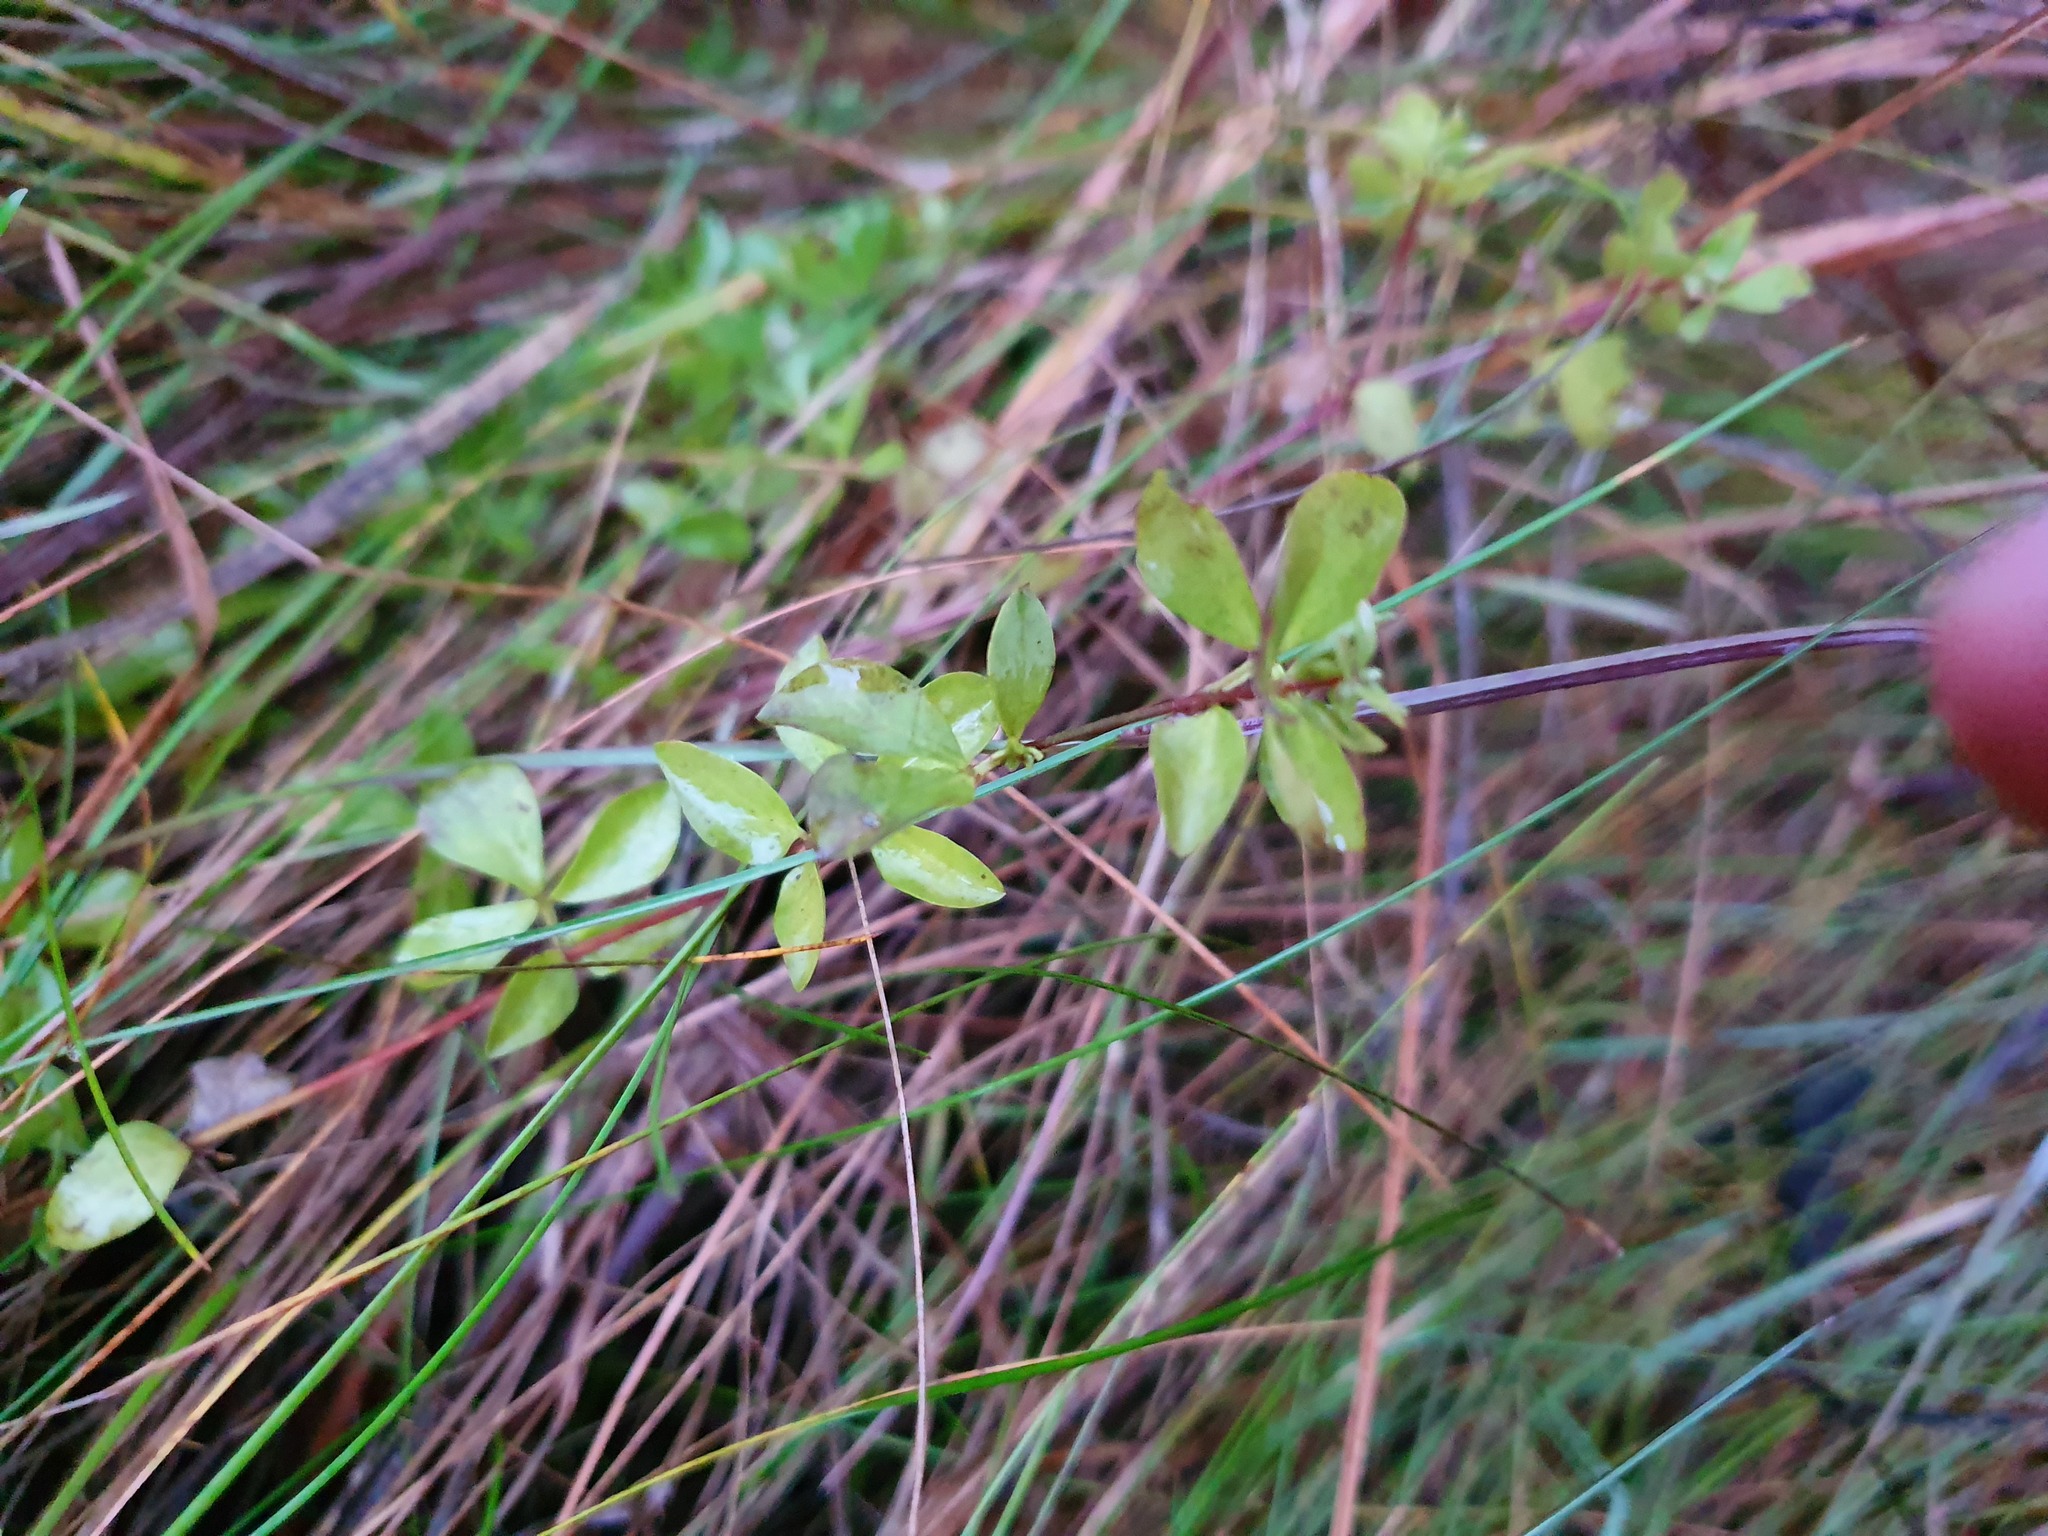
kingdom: Plantae
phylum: Tracheophyta
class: Magnoliopsida
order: Fabales
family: Fabaceae
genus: Lotus
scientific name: Lotus corniculatus
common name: Common bird's-foot-trefoil
